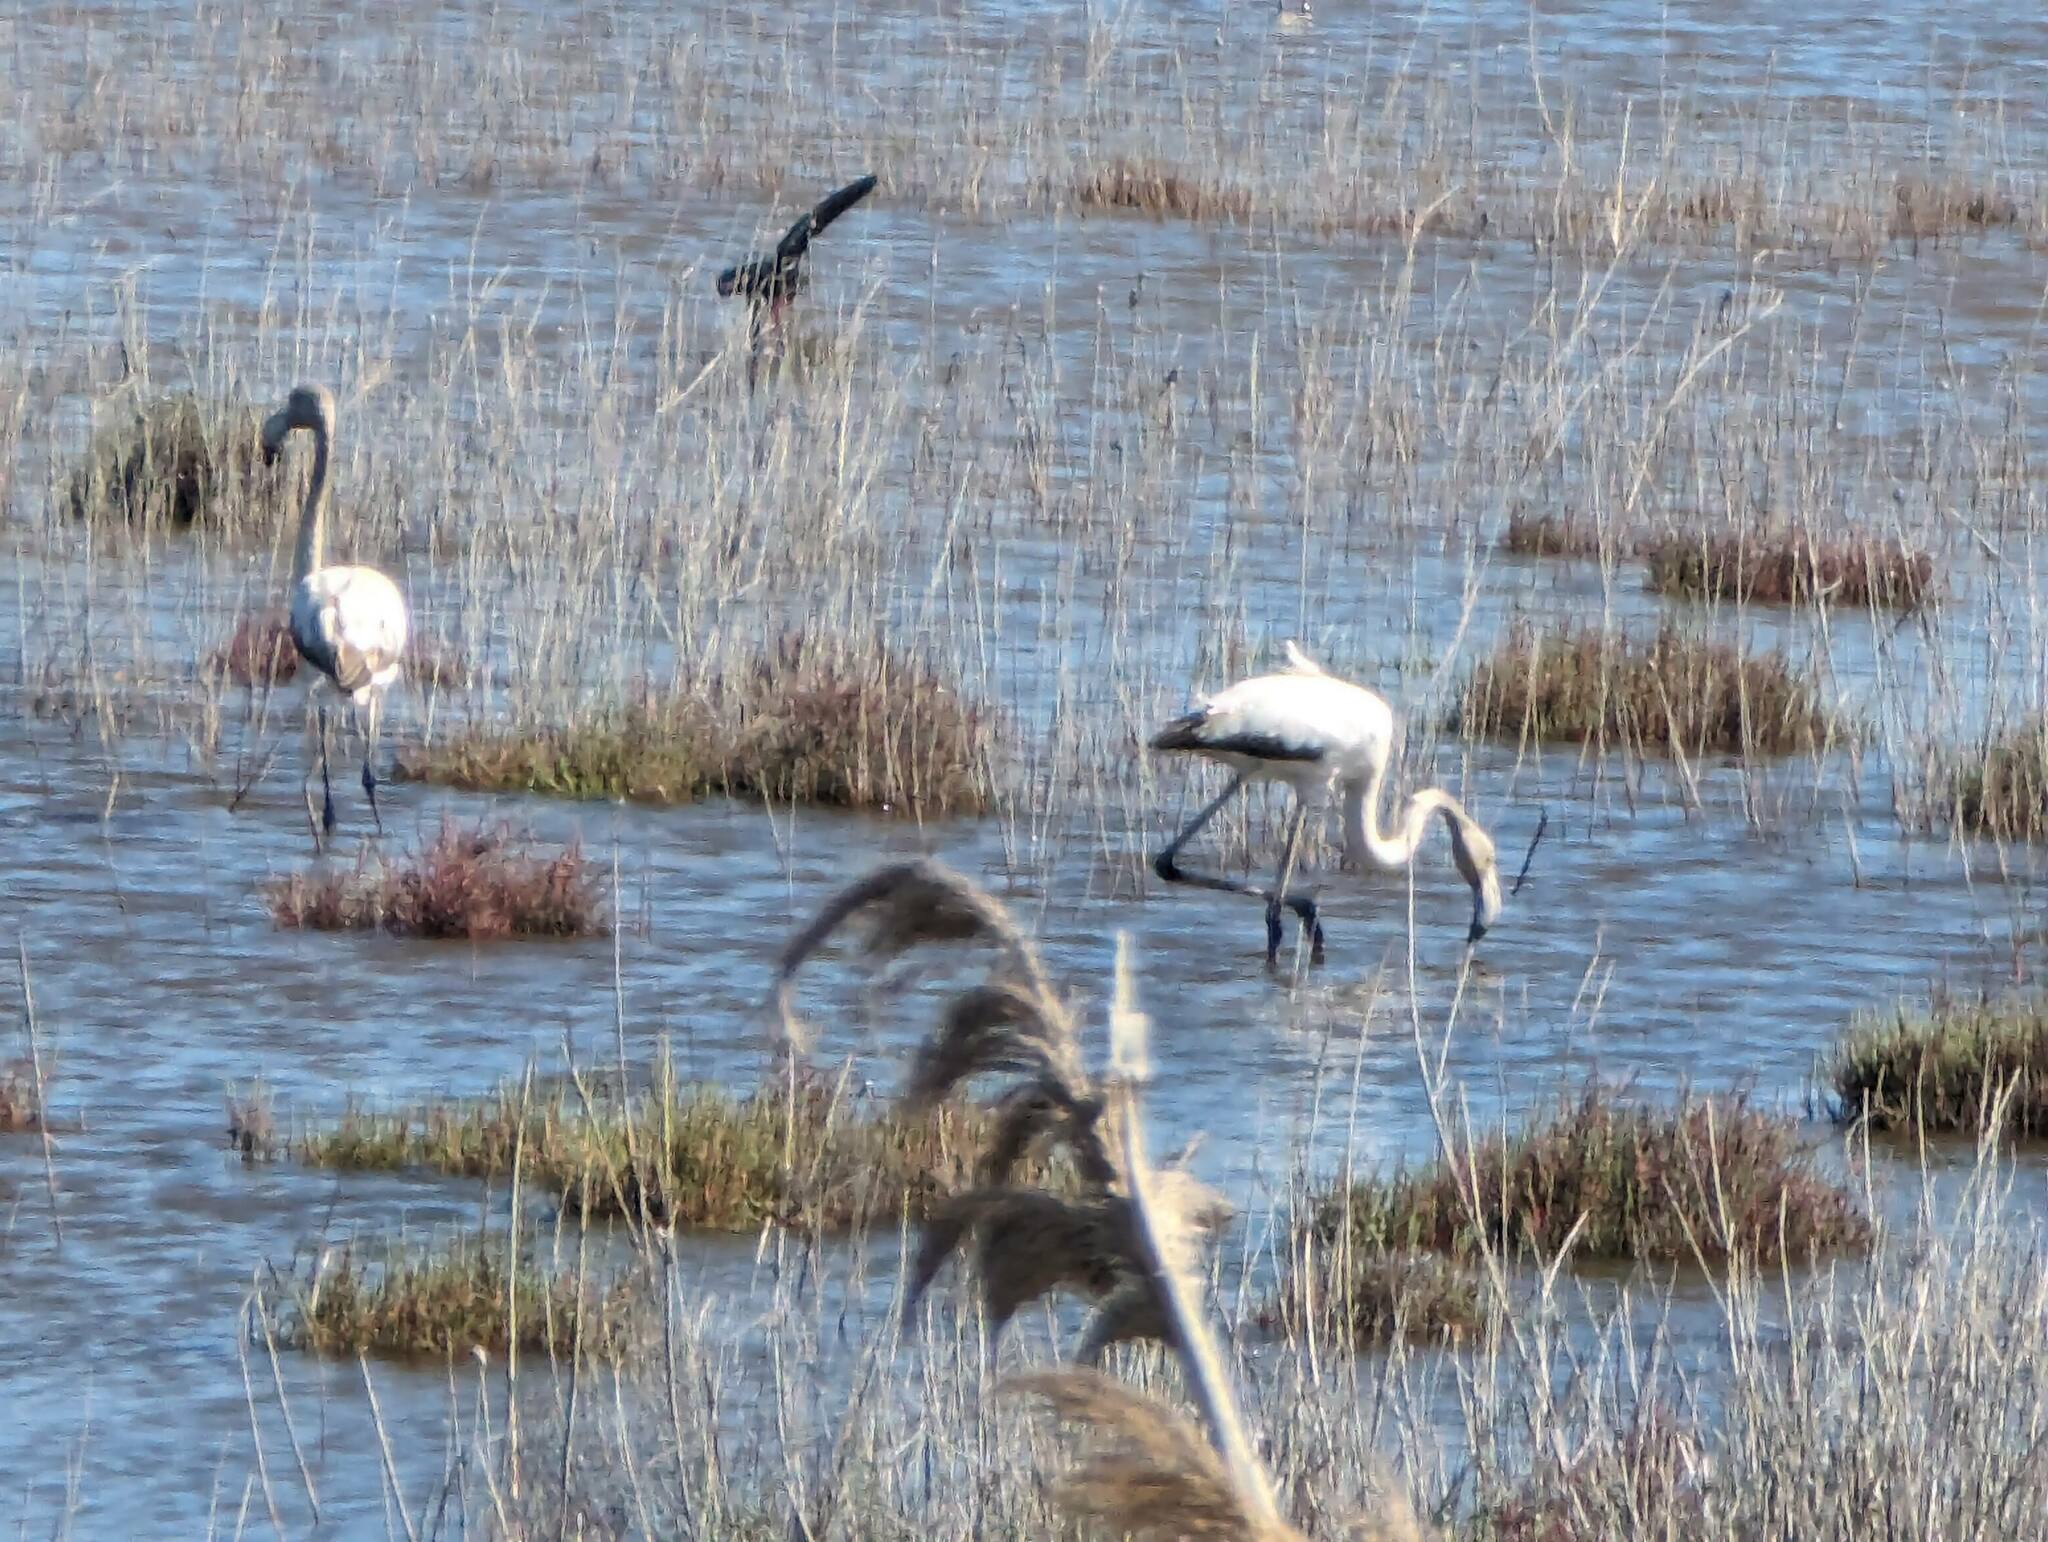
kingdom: Animalia
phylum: Chordata
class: Aves
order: Phoenicopteriformes
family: Phoenicopteridae
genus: Phoenicopterus
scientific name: Phoenicopterus roseus
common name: Greater flamingo
